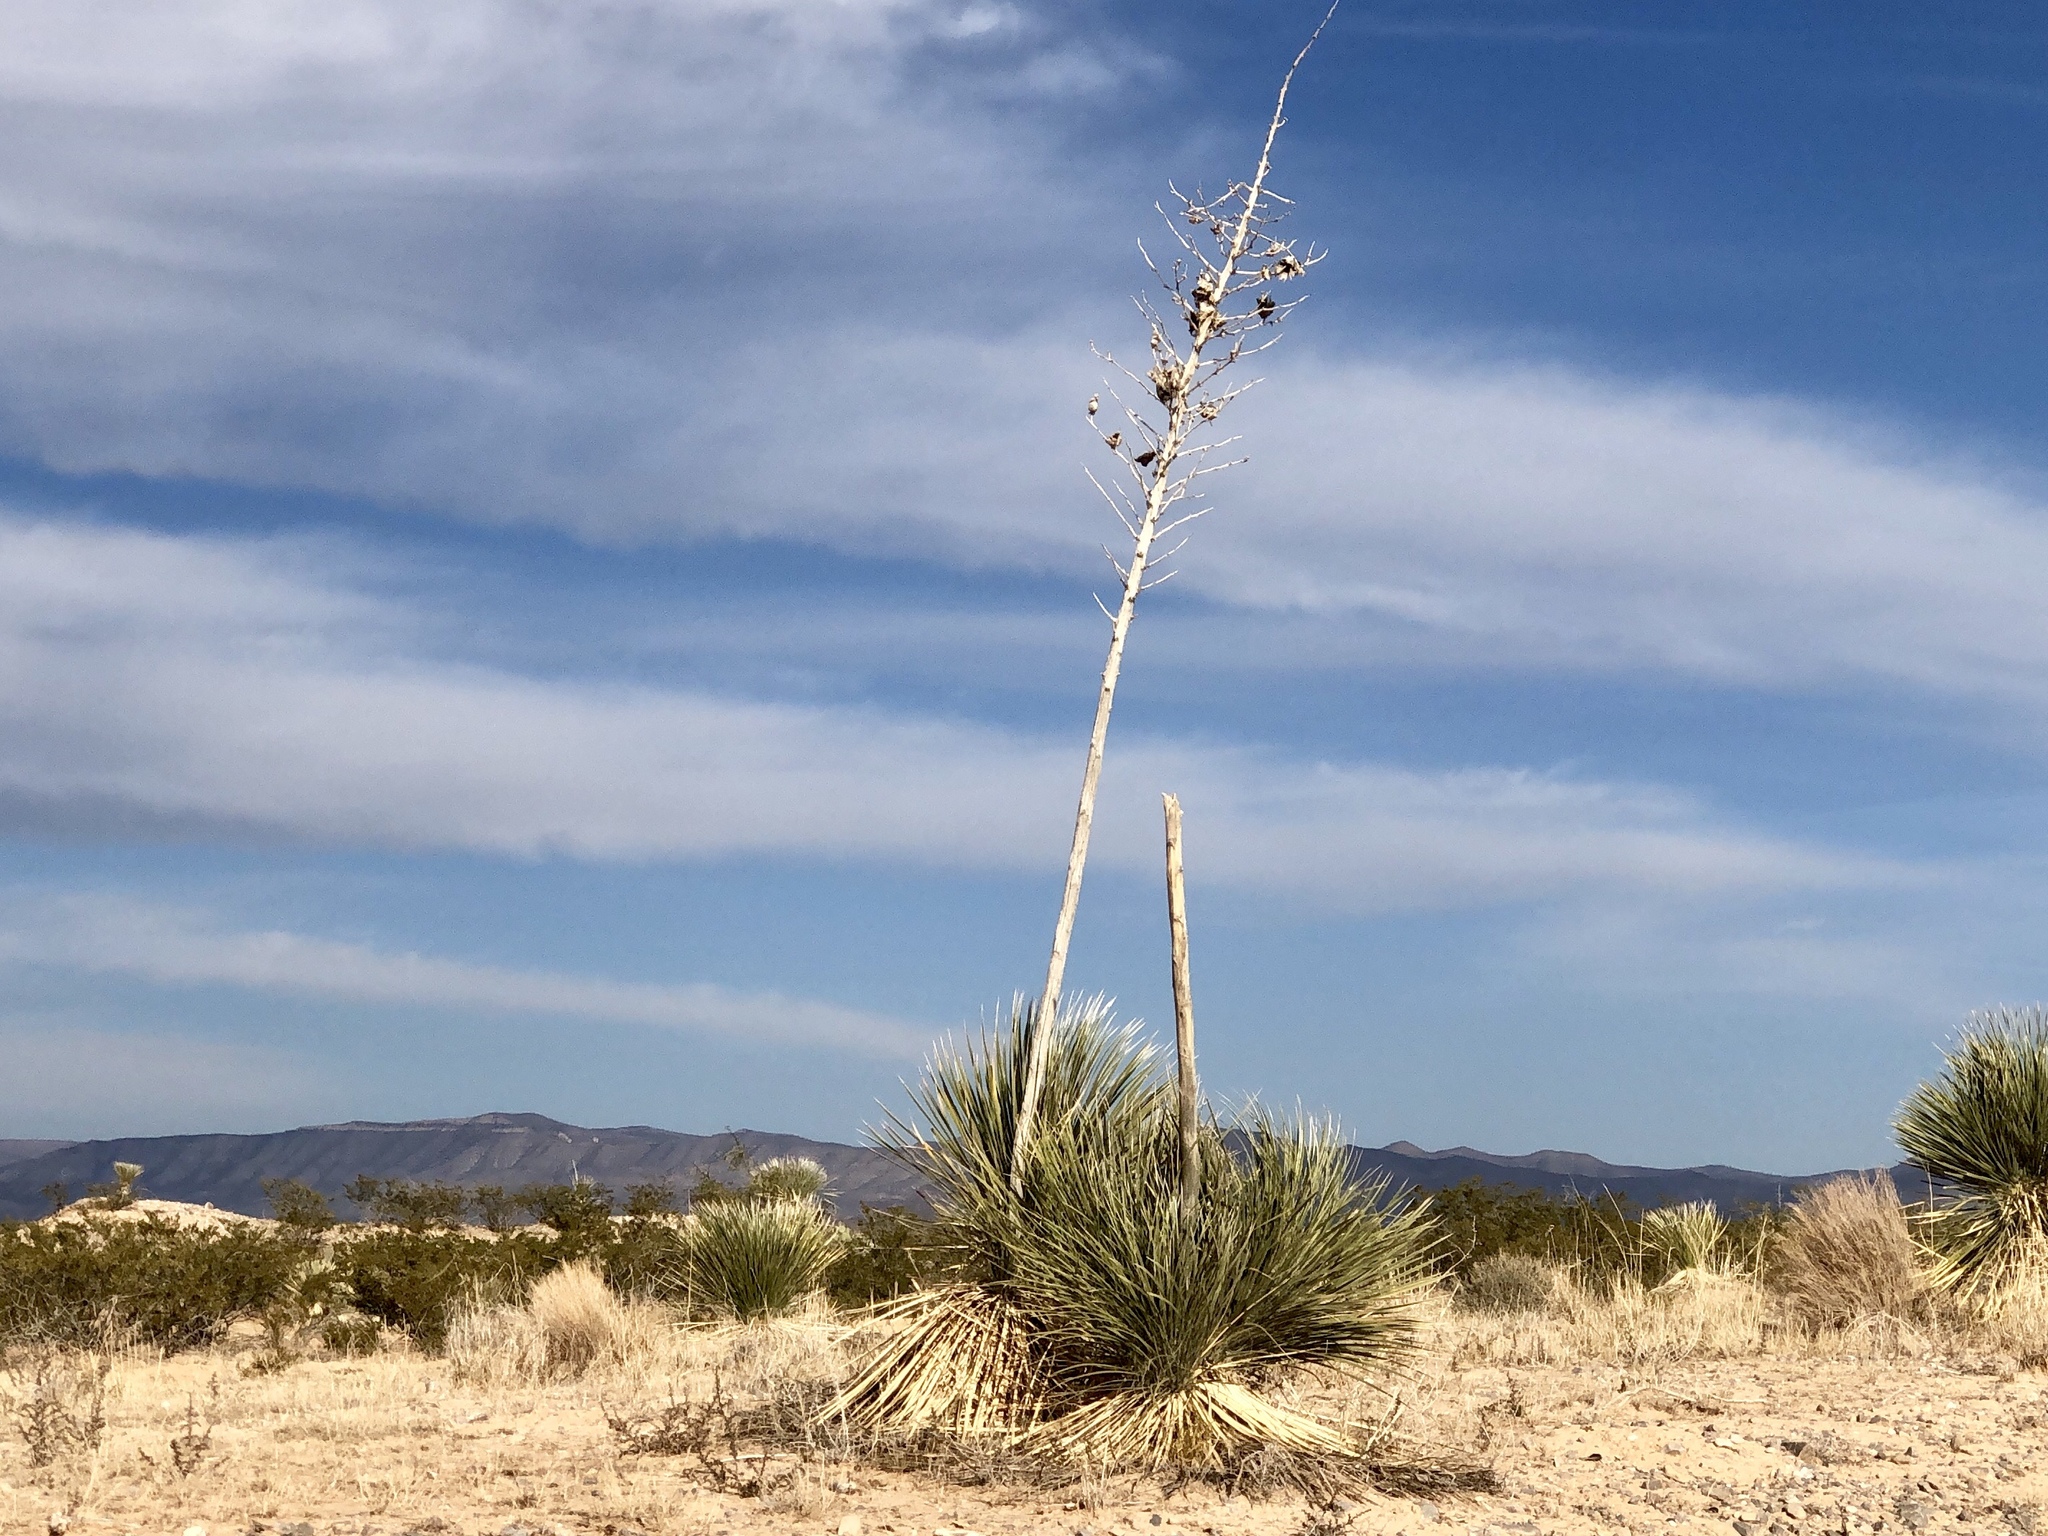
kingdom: Plantae
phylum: Tracheophyta
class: Liliopsida
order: Asparagales
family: Asparagaceae
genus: Yucca
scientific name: Yucca elata
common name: Palmella
